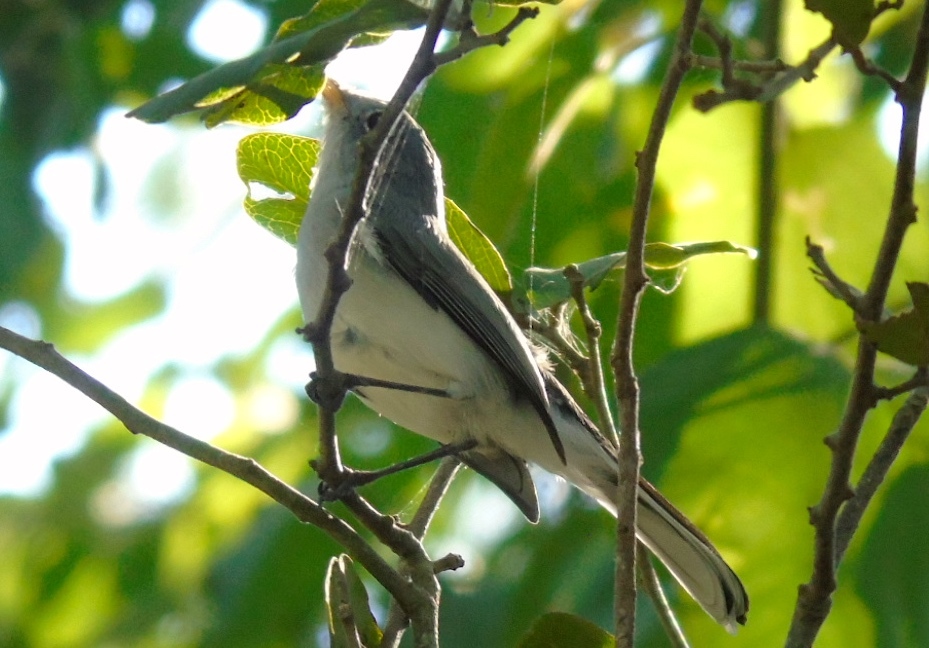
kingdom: Animalia
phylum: Chordata
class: Aves
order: Passeriformes
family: Polioptilidae
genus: Polioptila
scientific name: Polioptila caerulea
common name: Blue-gray gnatcatcher
